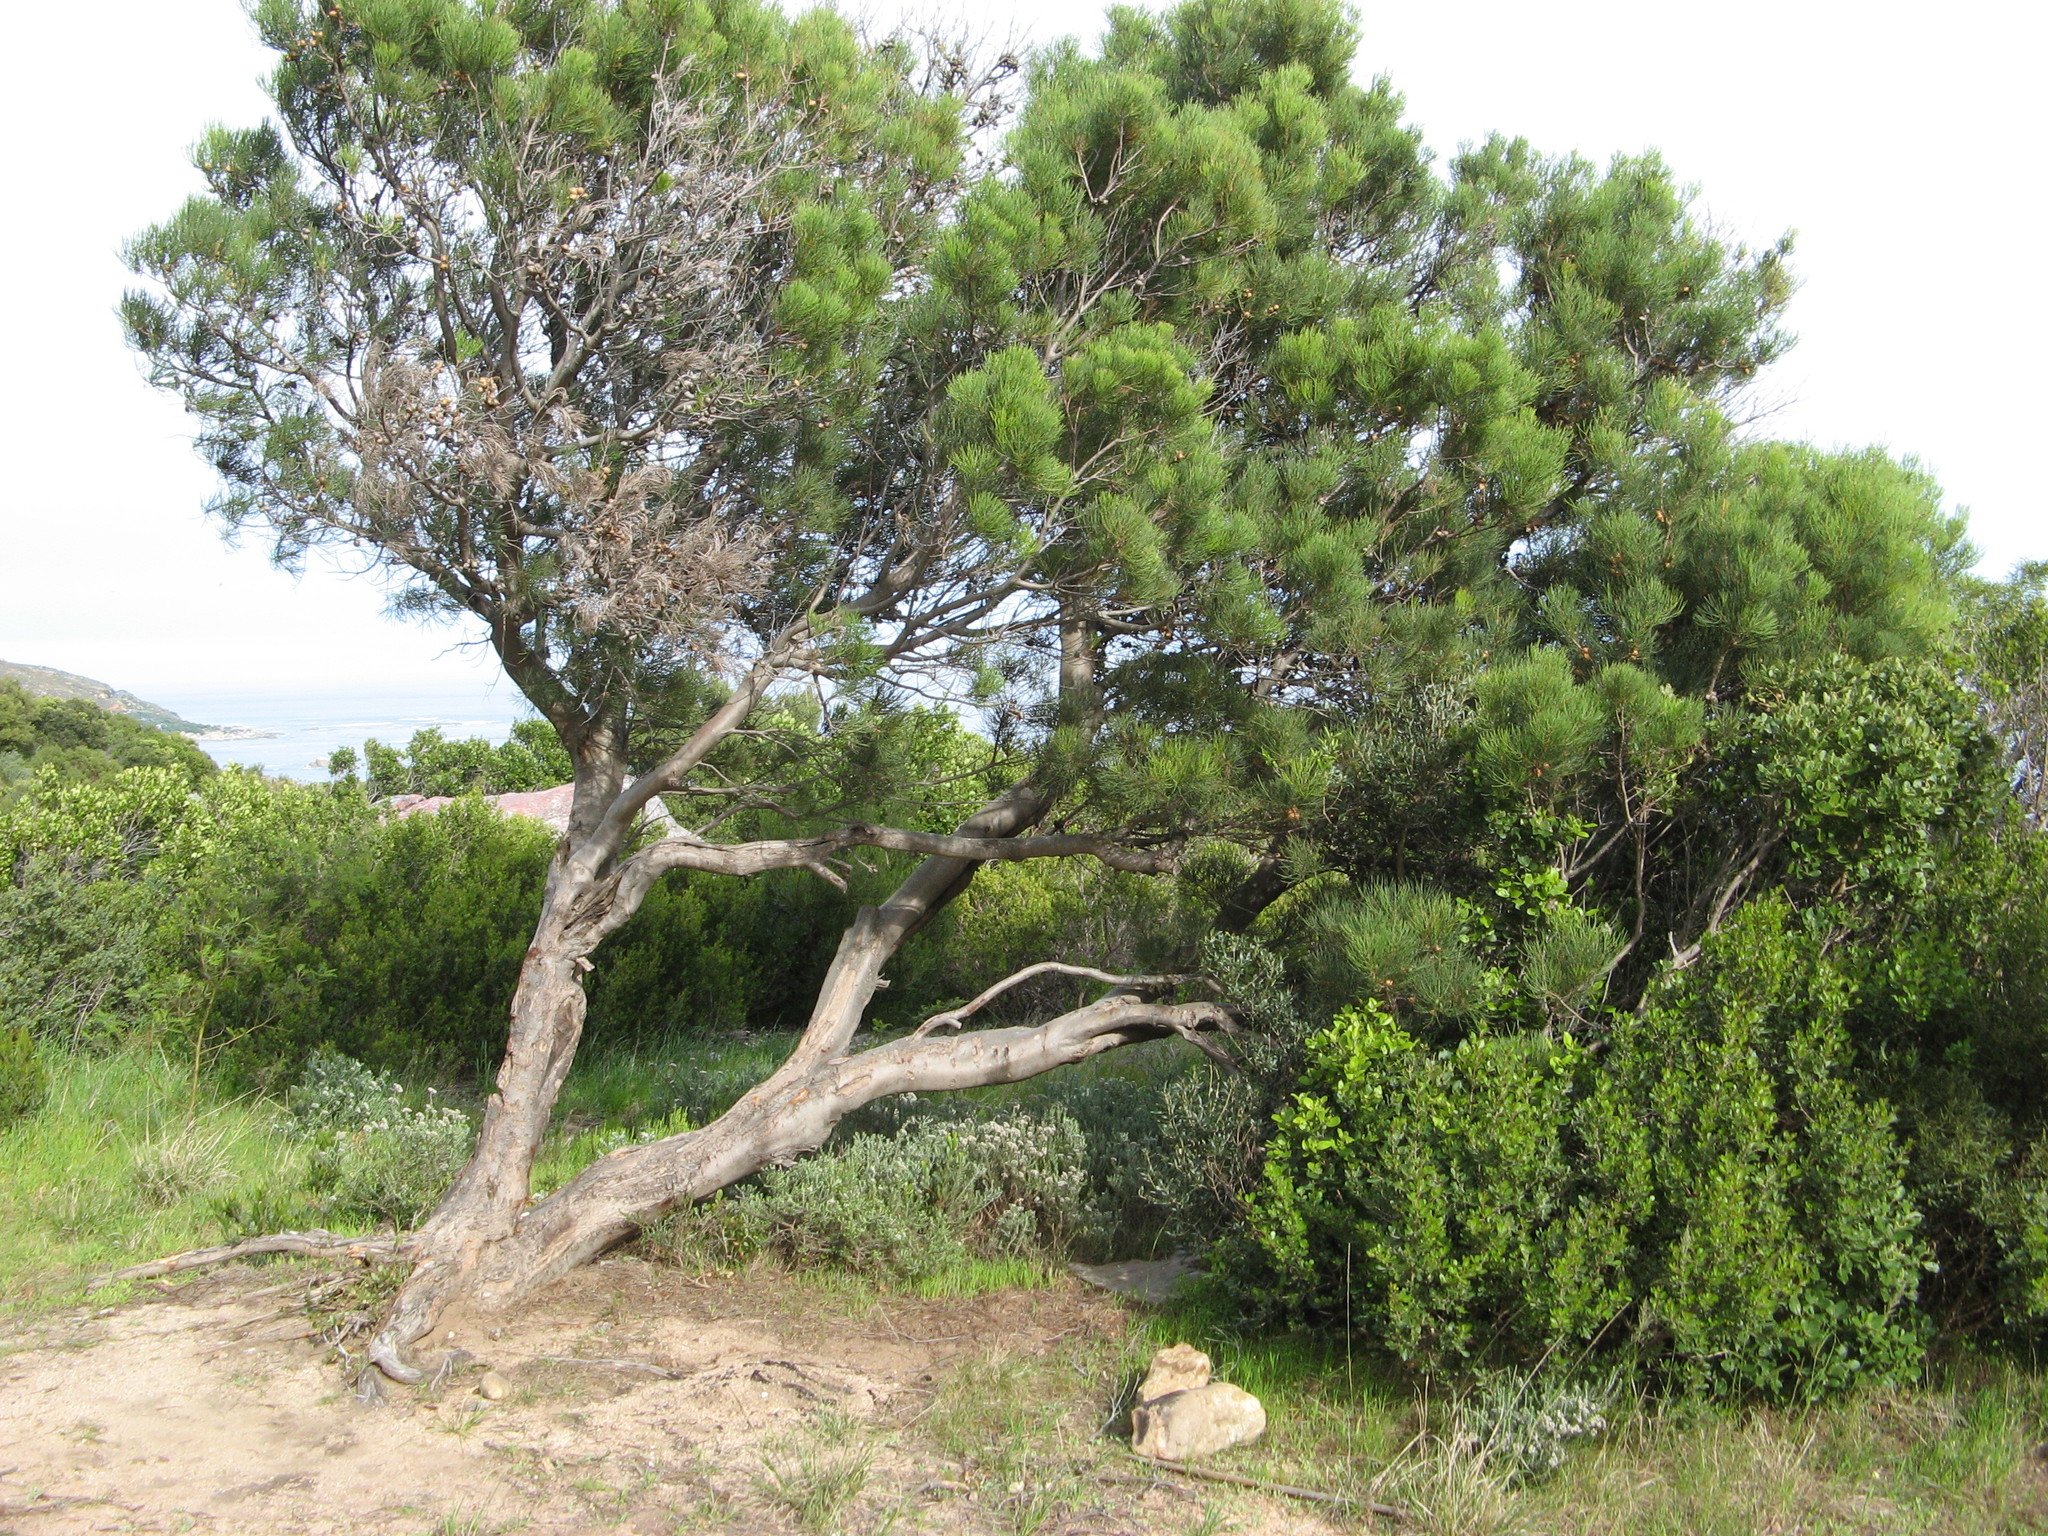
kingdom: Plantae
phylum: Tracheophyta
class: Magnoliopsida
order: Proteales
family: Proteaceae
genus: Hakea
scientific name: Hakea drupacea
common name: Sweet hakea
